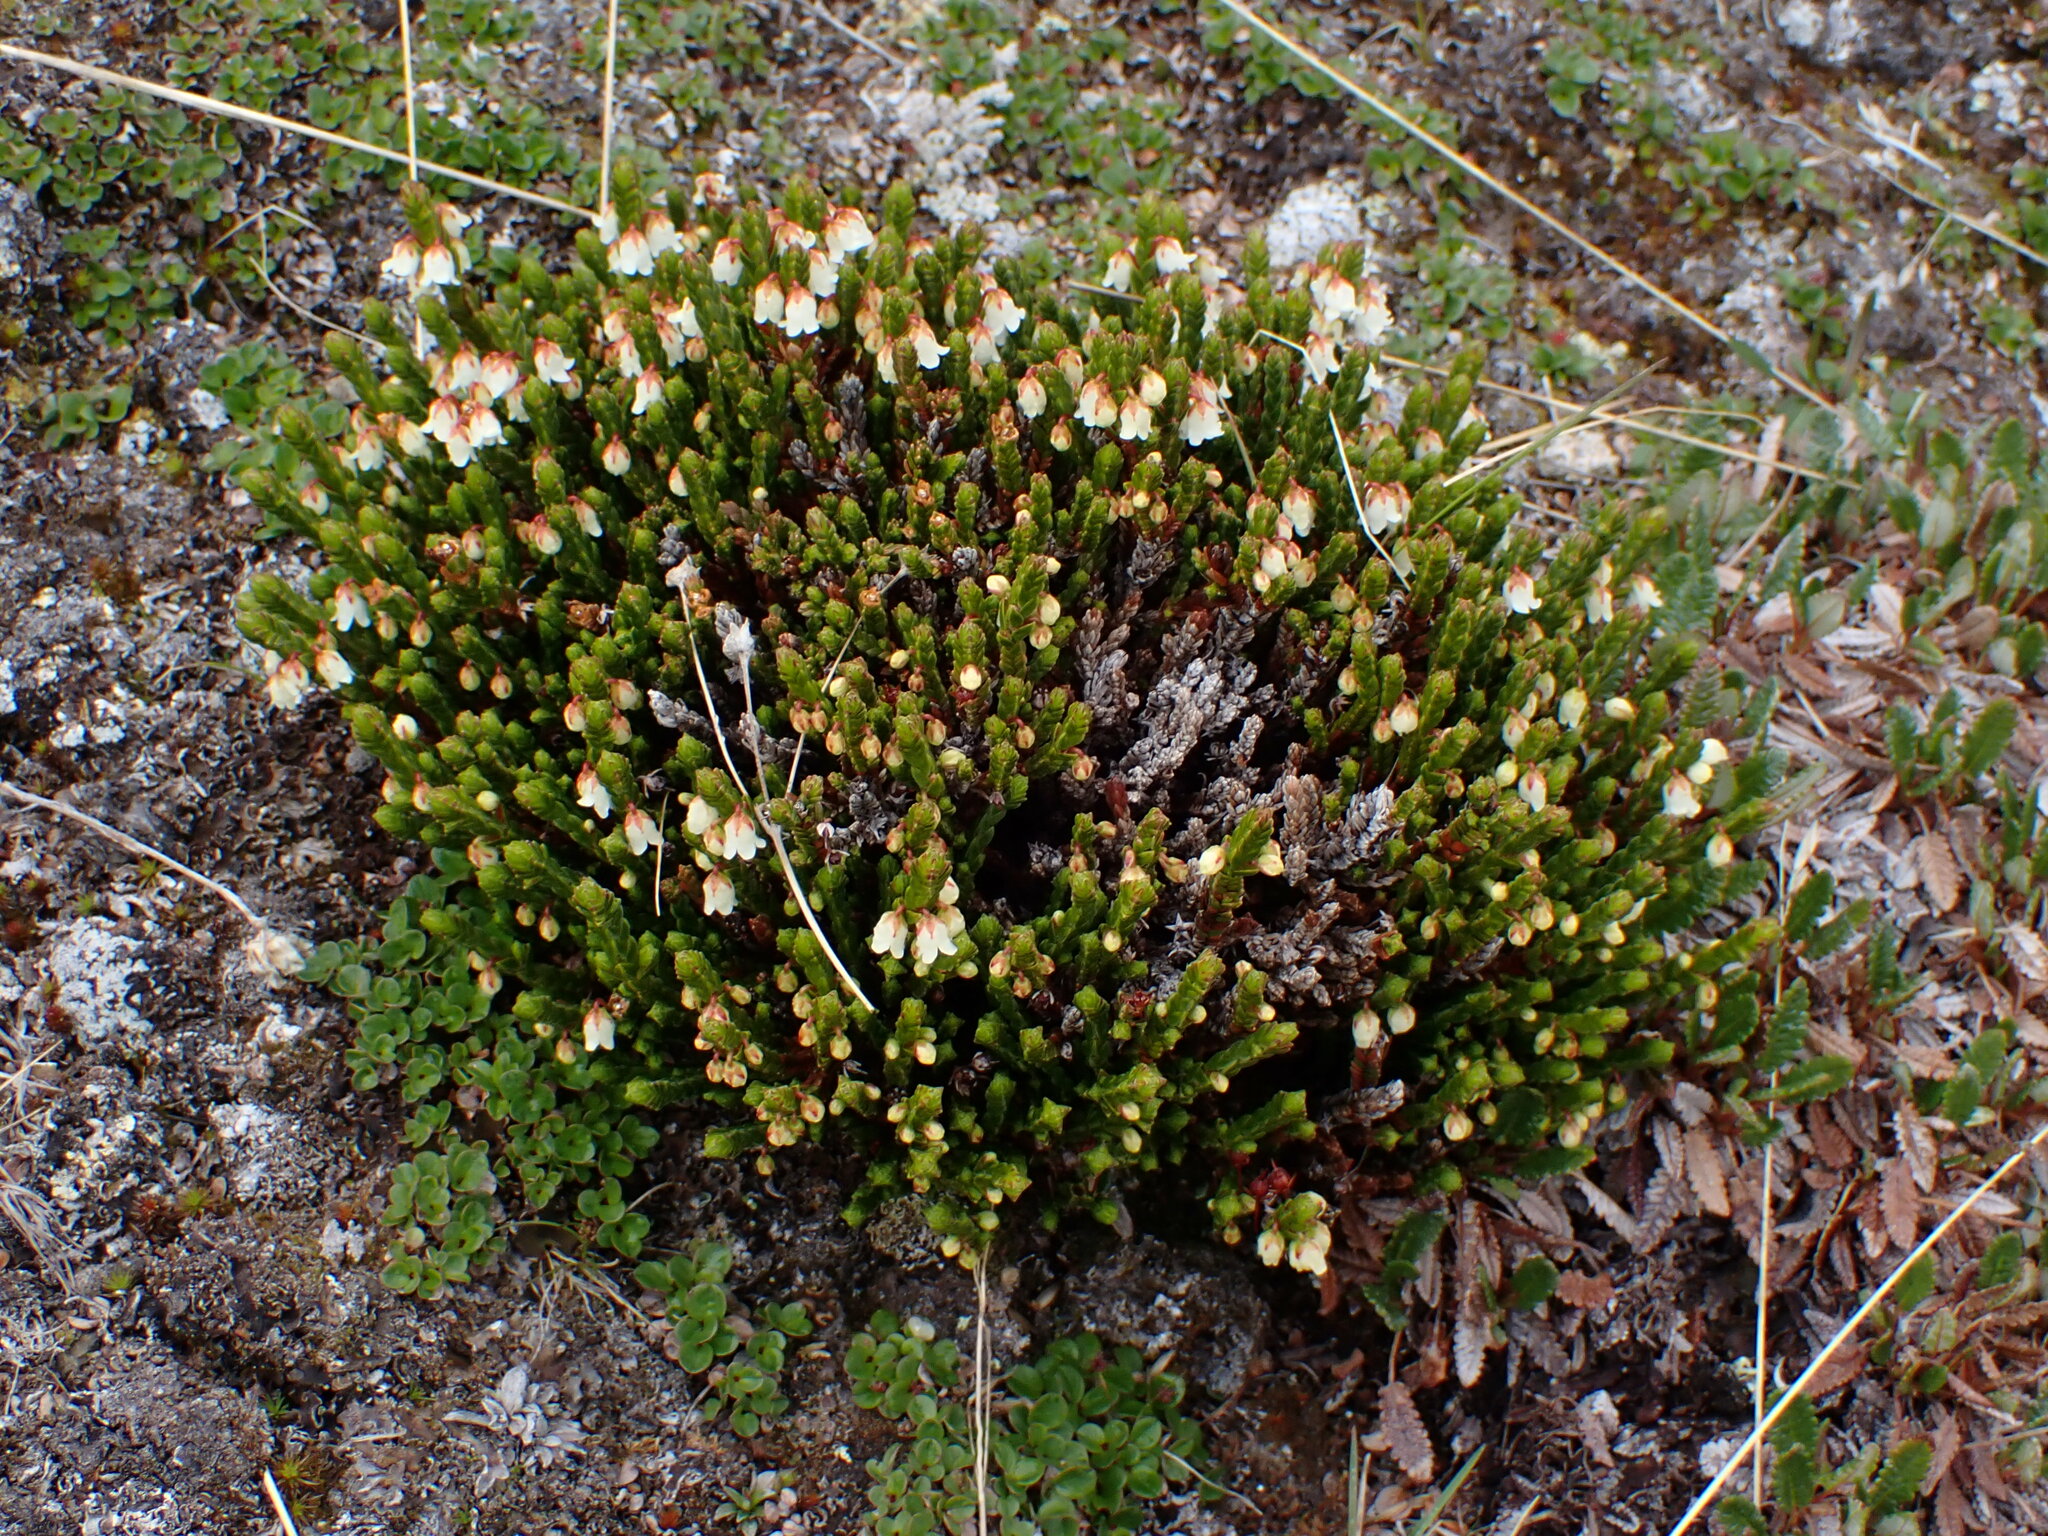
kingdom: Plantae
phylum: Tracheophyta
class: Magnoliopsida
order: Ericales
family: Ericaceae
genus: Cassiope
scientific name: Cassiope tetragona
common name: Arctic bell heather
